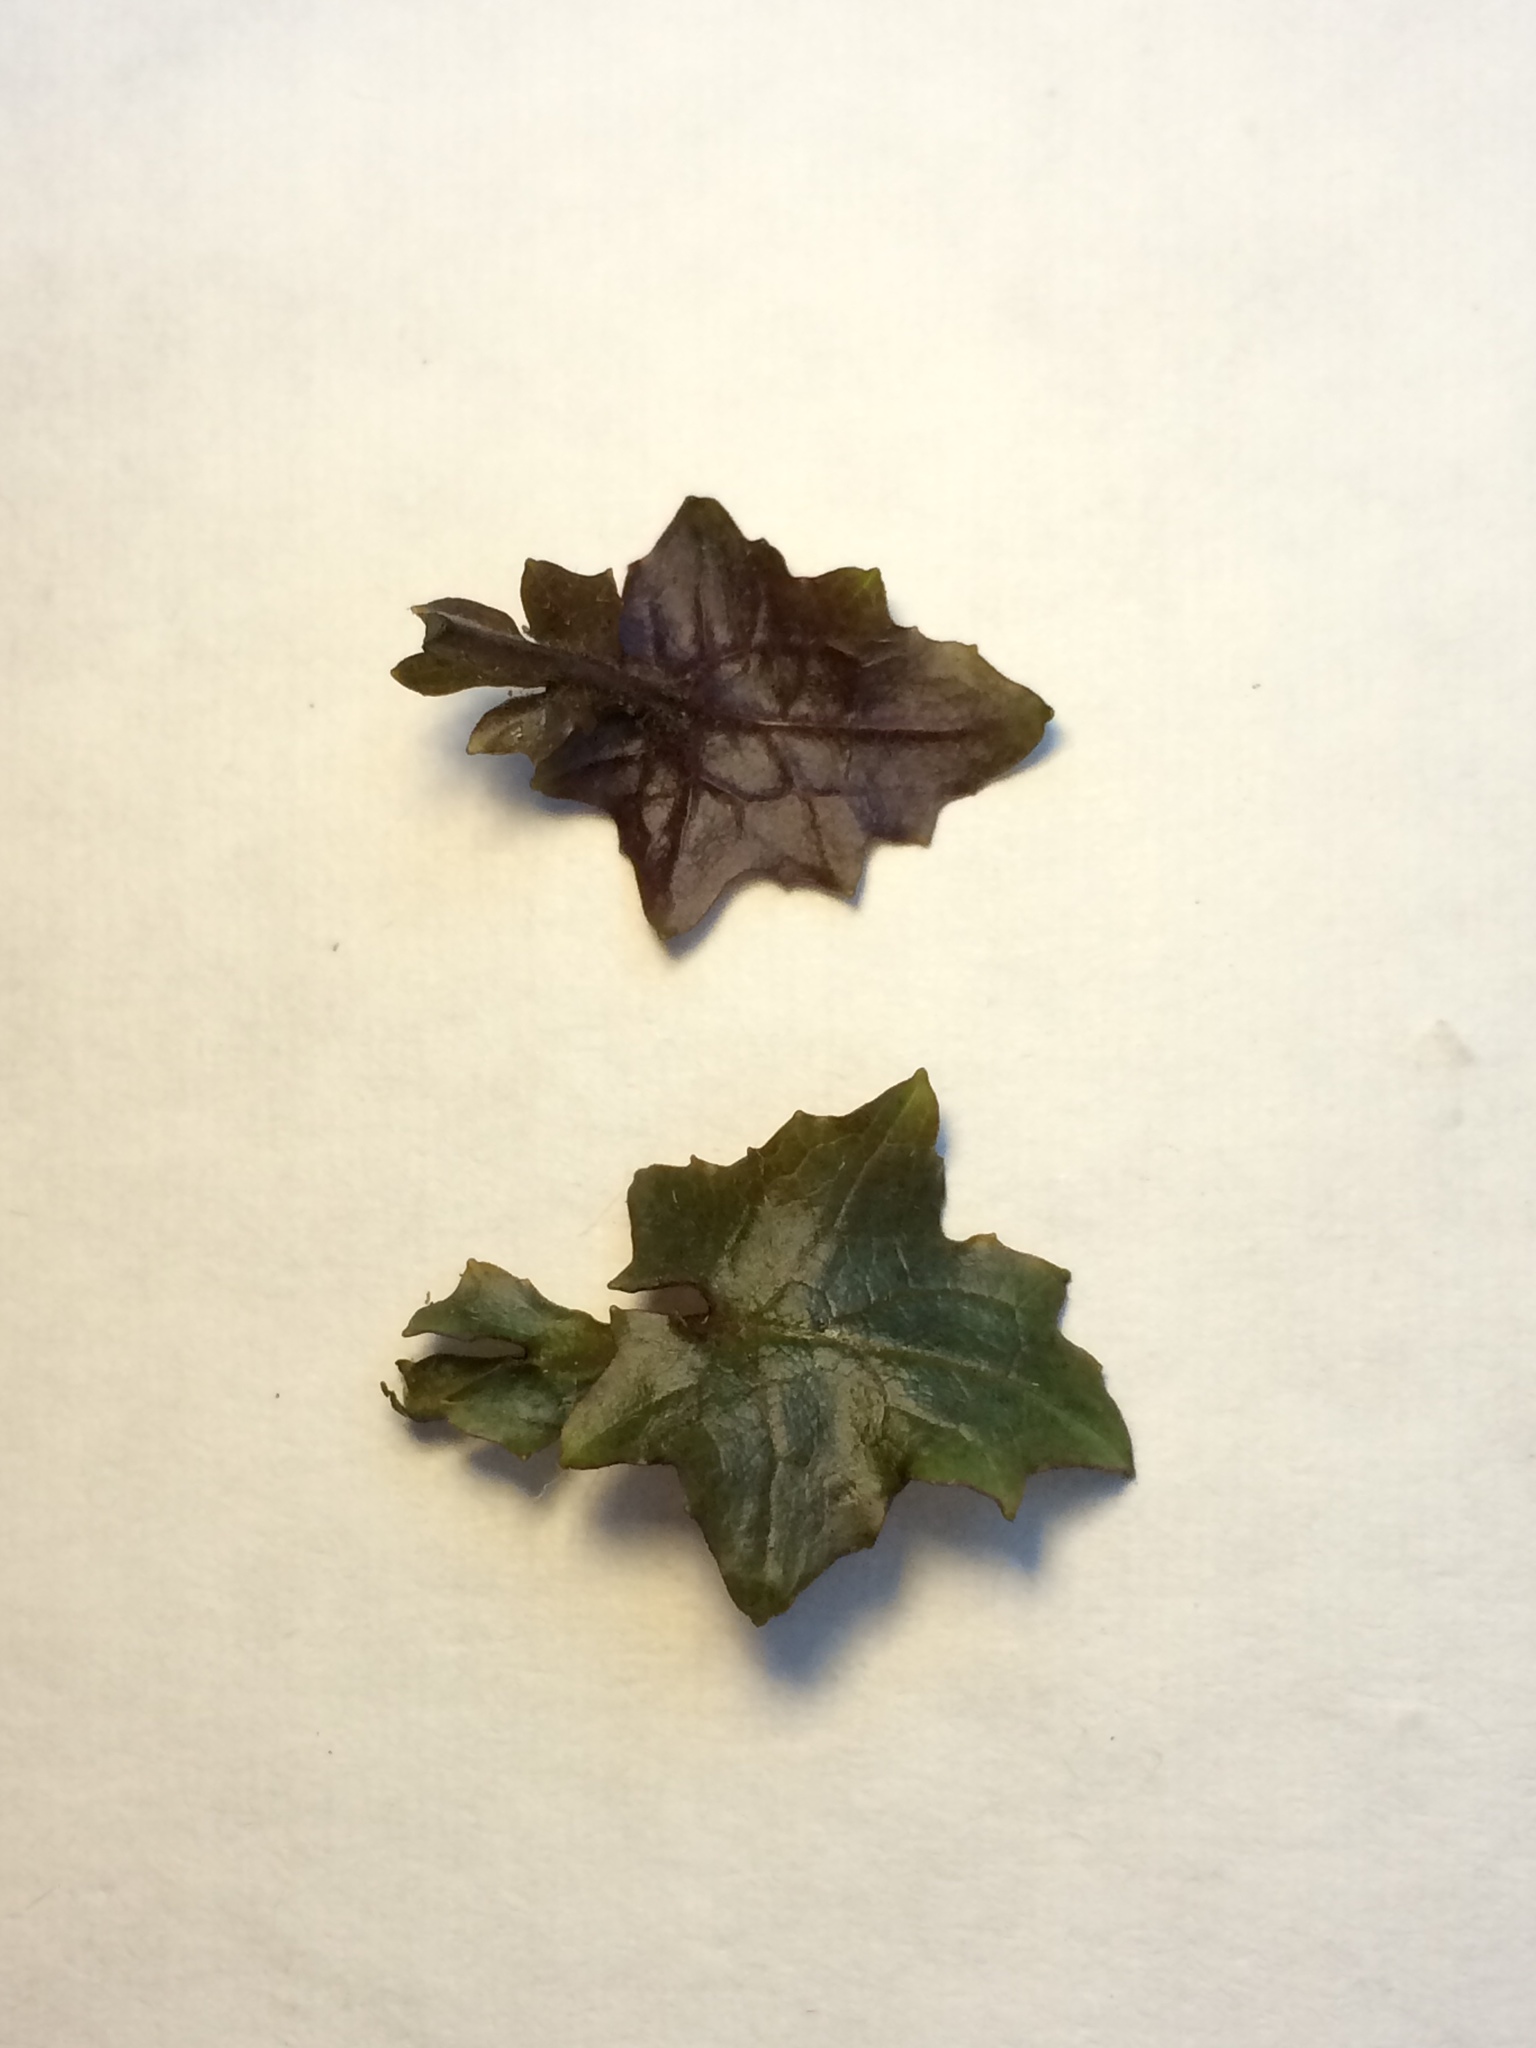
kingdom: Plantae
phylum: Tracheophyta
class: Magnoliopsida
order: Asterales
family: Asteraceae
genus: Mycelis
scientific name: Mycelis muralis
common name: Wall lettuce
